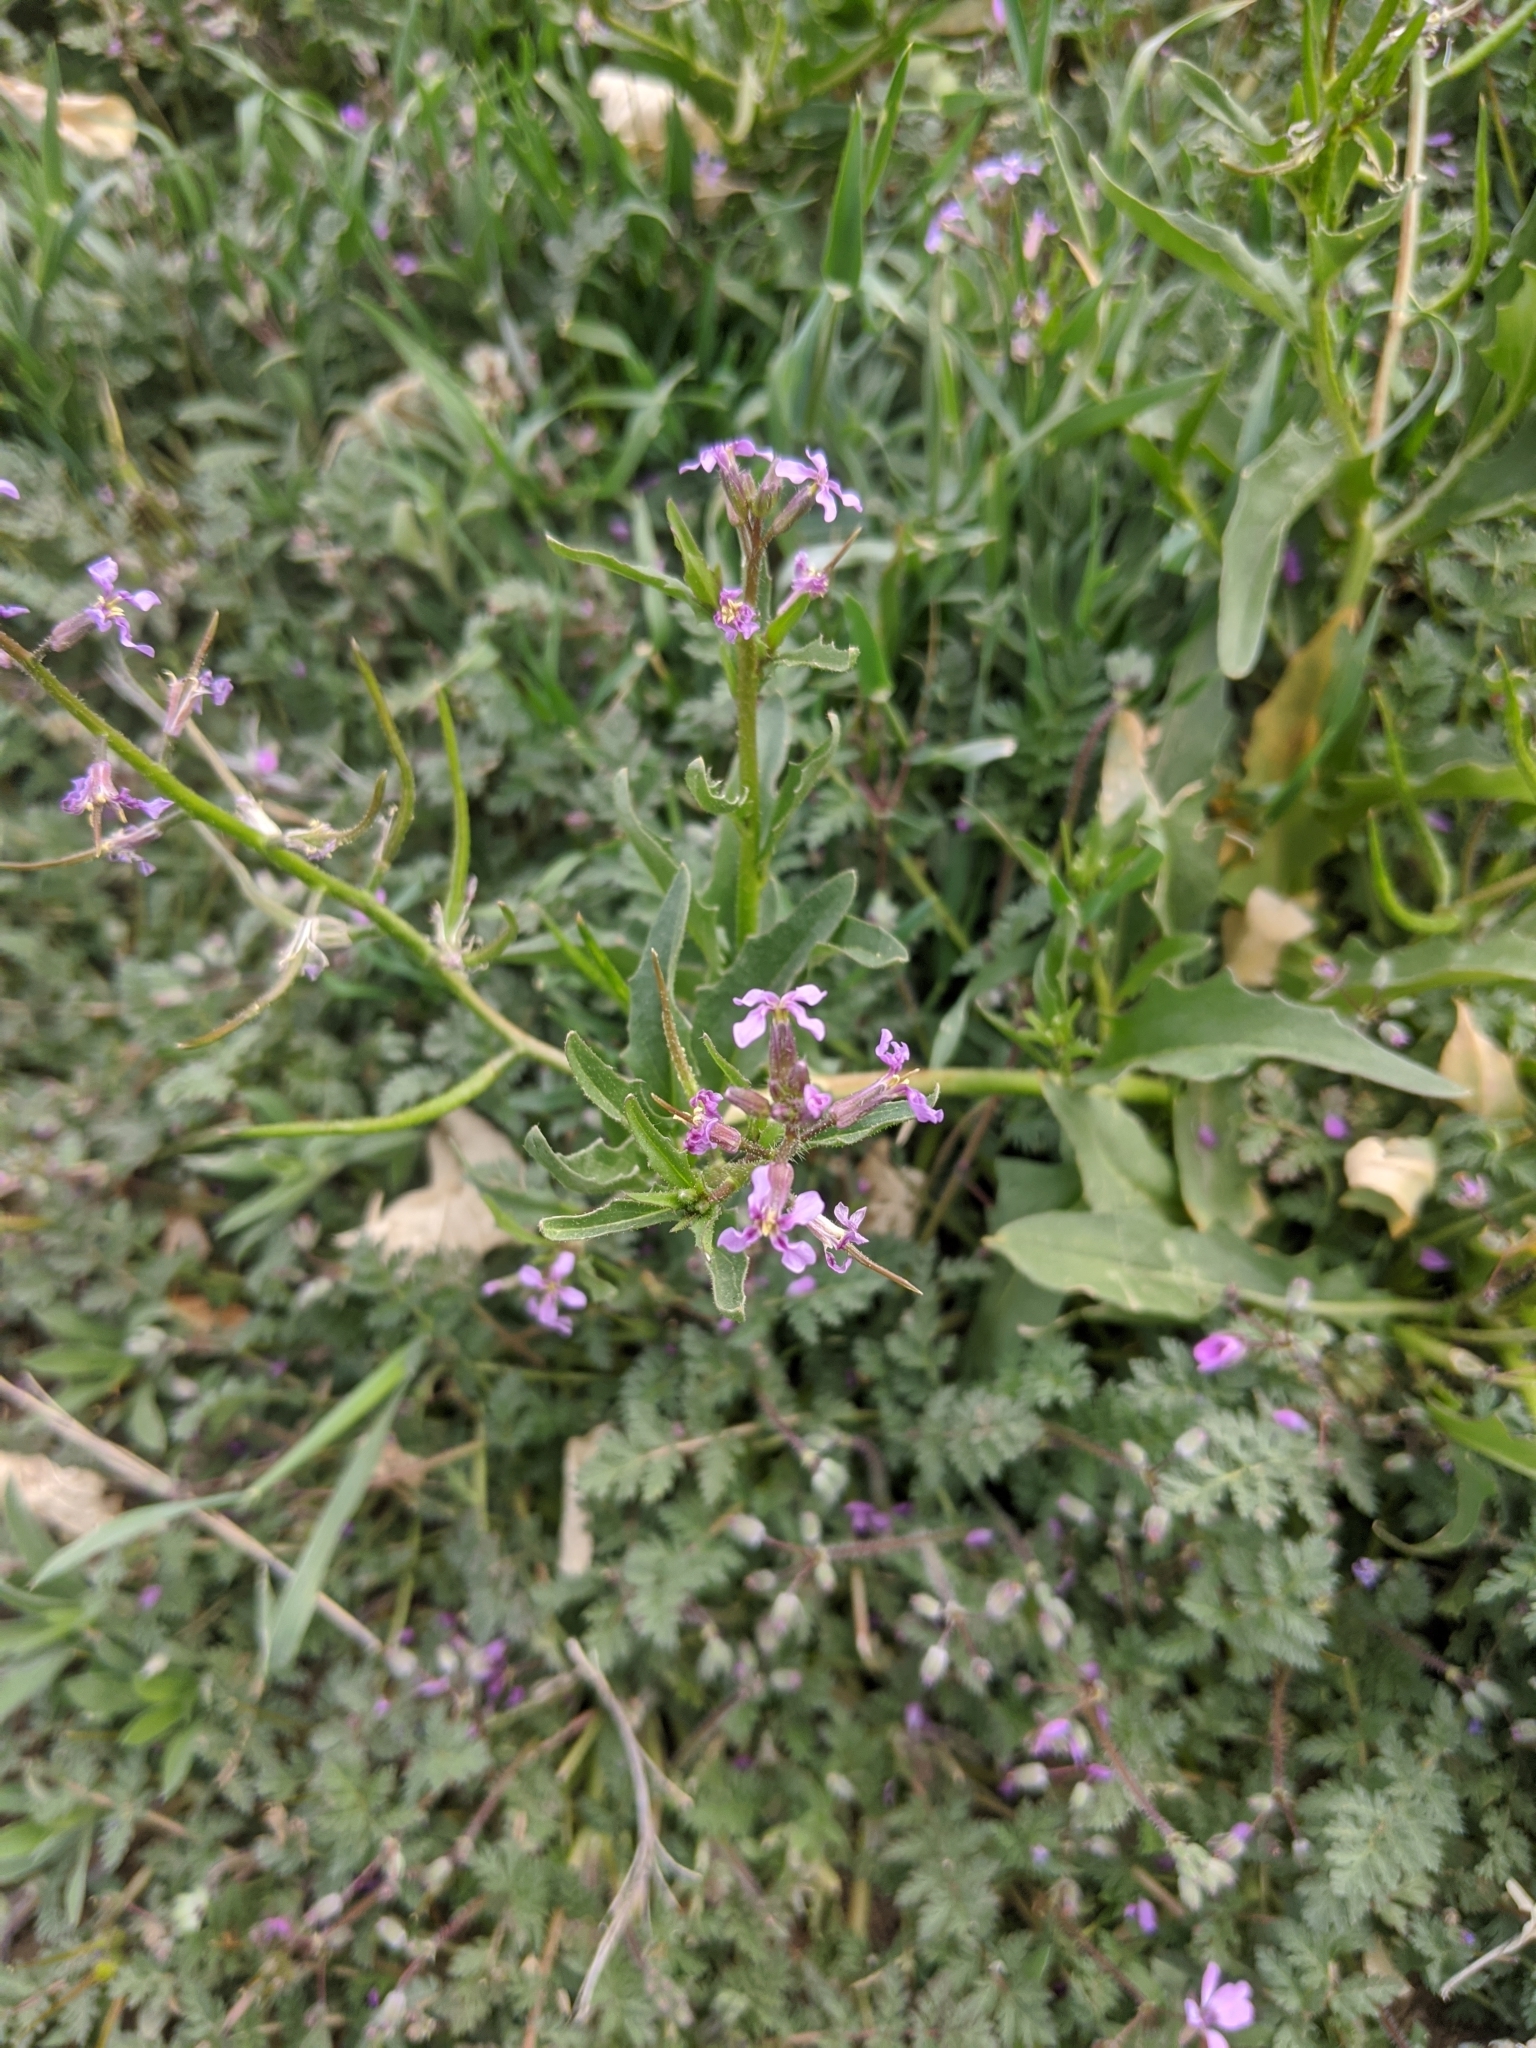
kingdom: Plantae
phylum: Tracheophyta
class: Magnoliopsida
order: Brassicales
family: Brassicaceae
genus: Chorispora
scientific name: Chorispora tenella
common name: Crossflower
